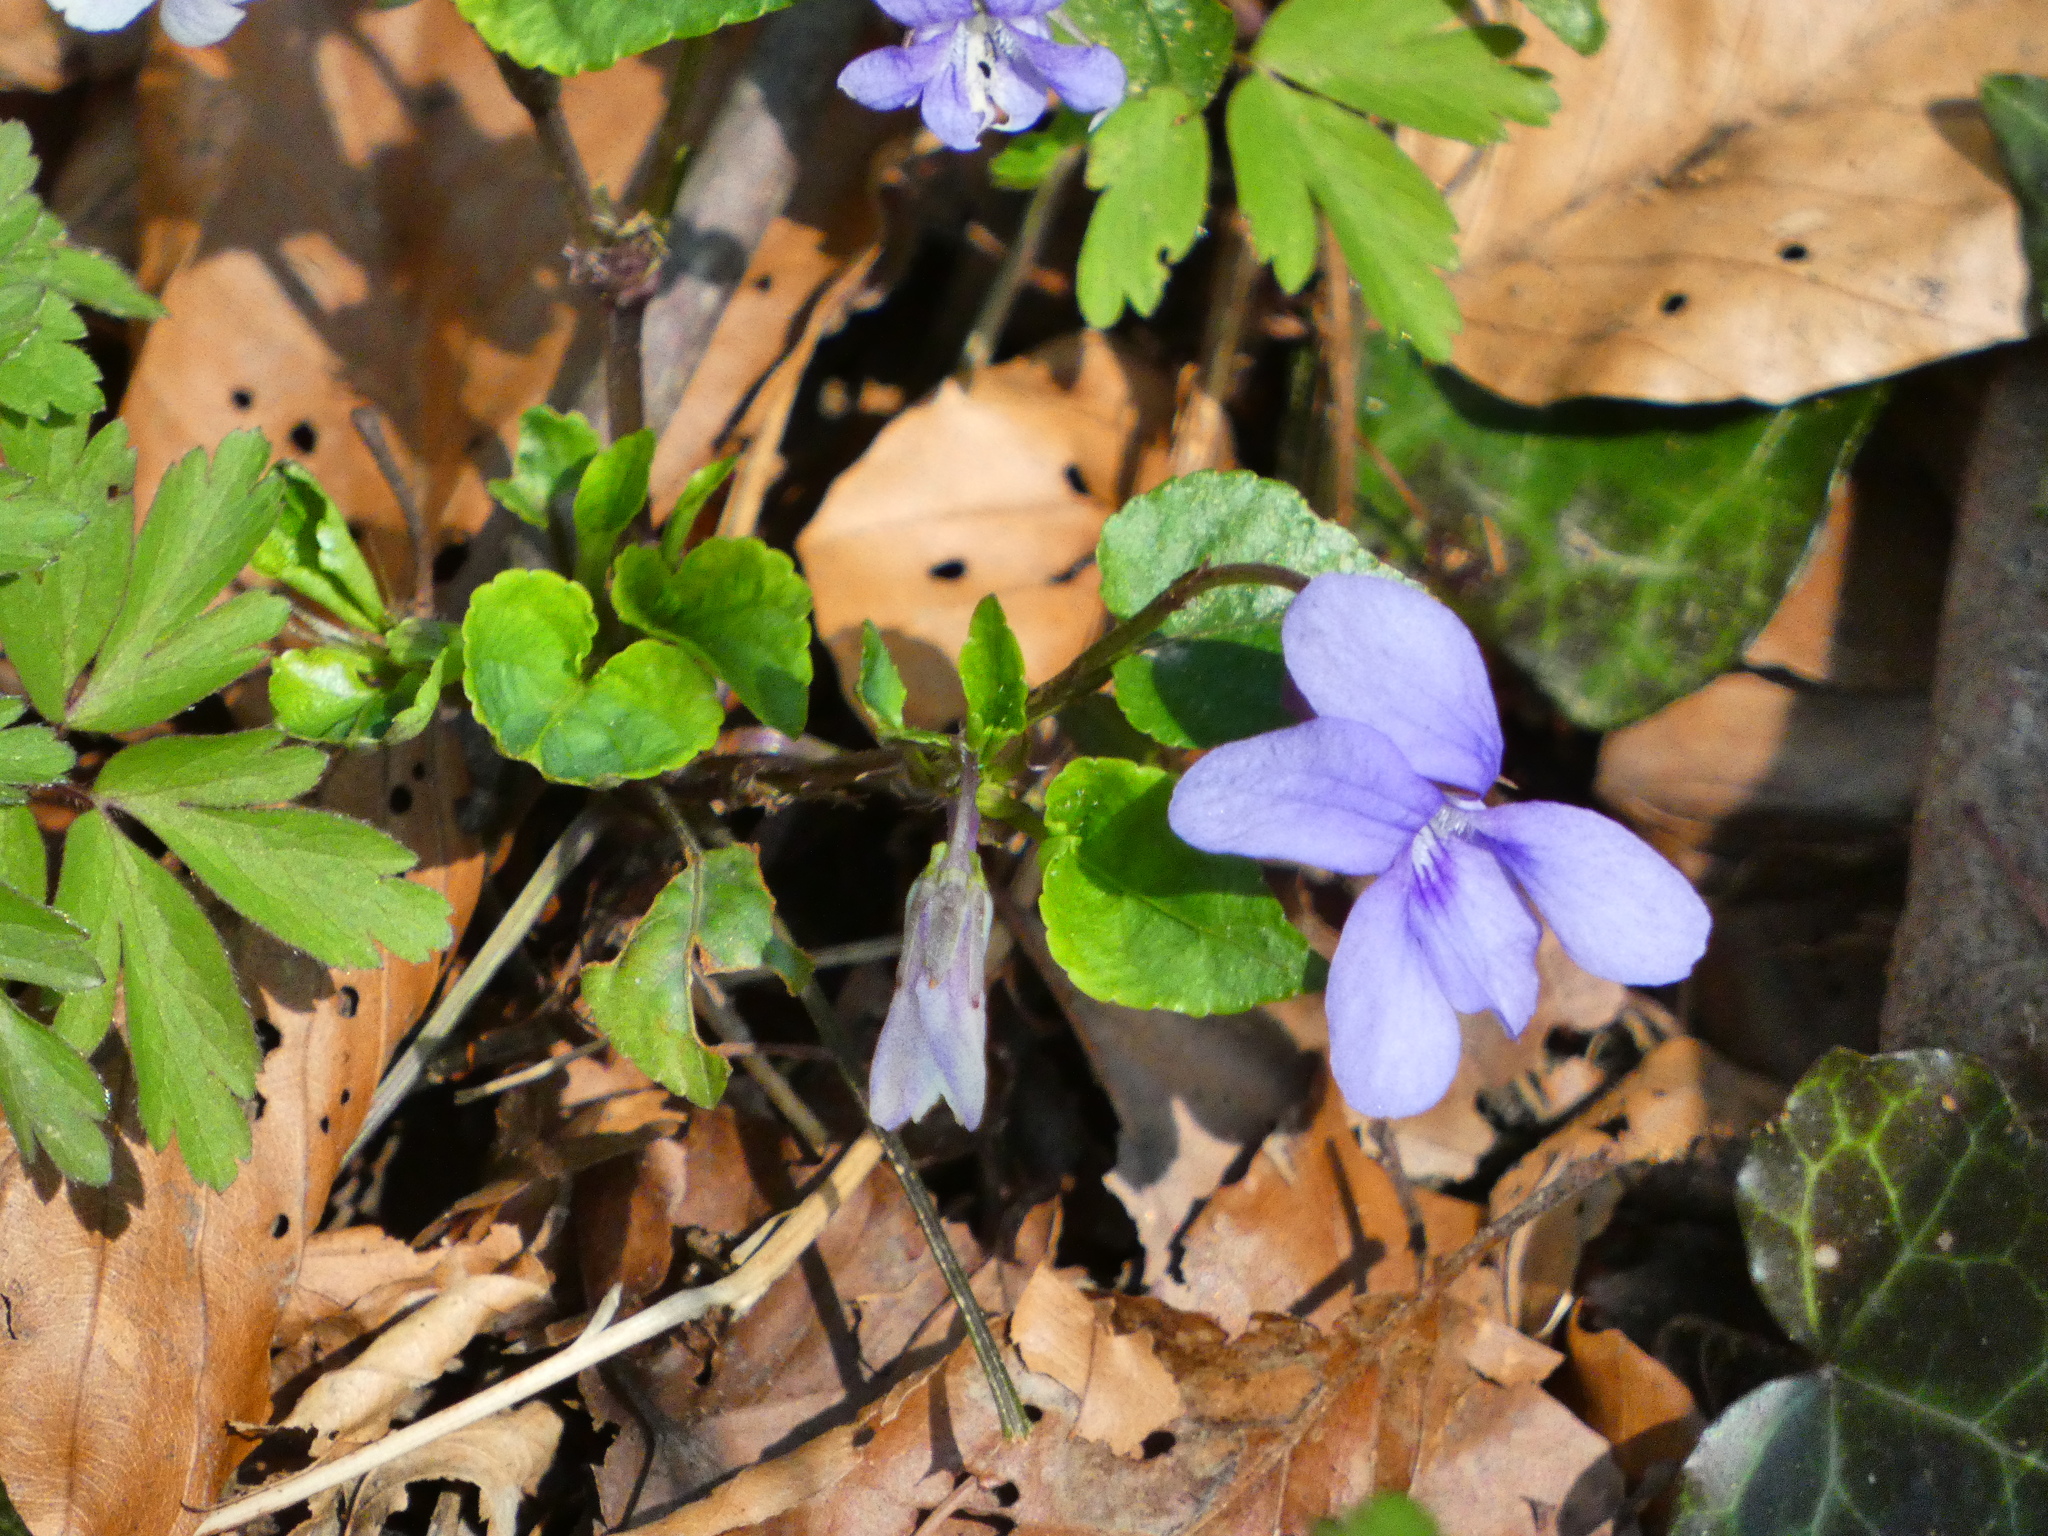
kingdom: Plantae
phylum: Tracheophyta
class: Magnoliopsida
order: Malpighiales
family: Violaceae
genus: Viola
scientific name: Viola reichenbachiana
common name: Early dog-violet
